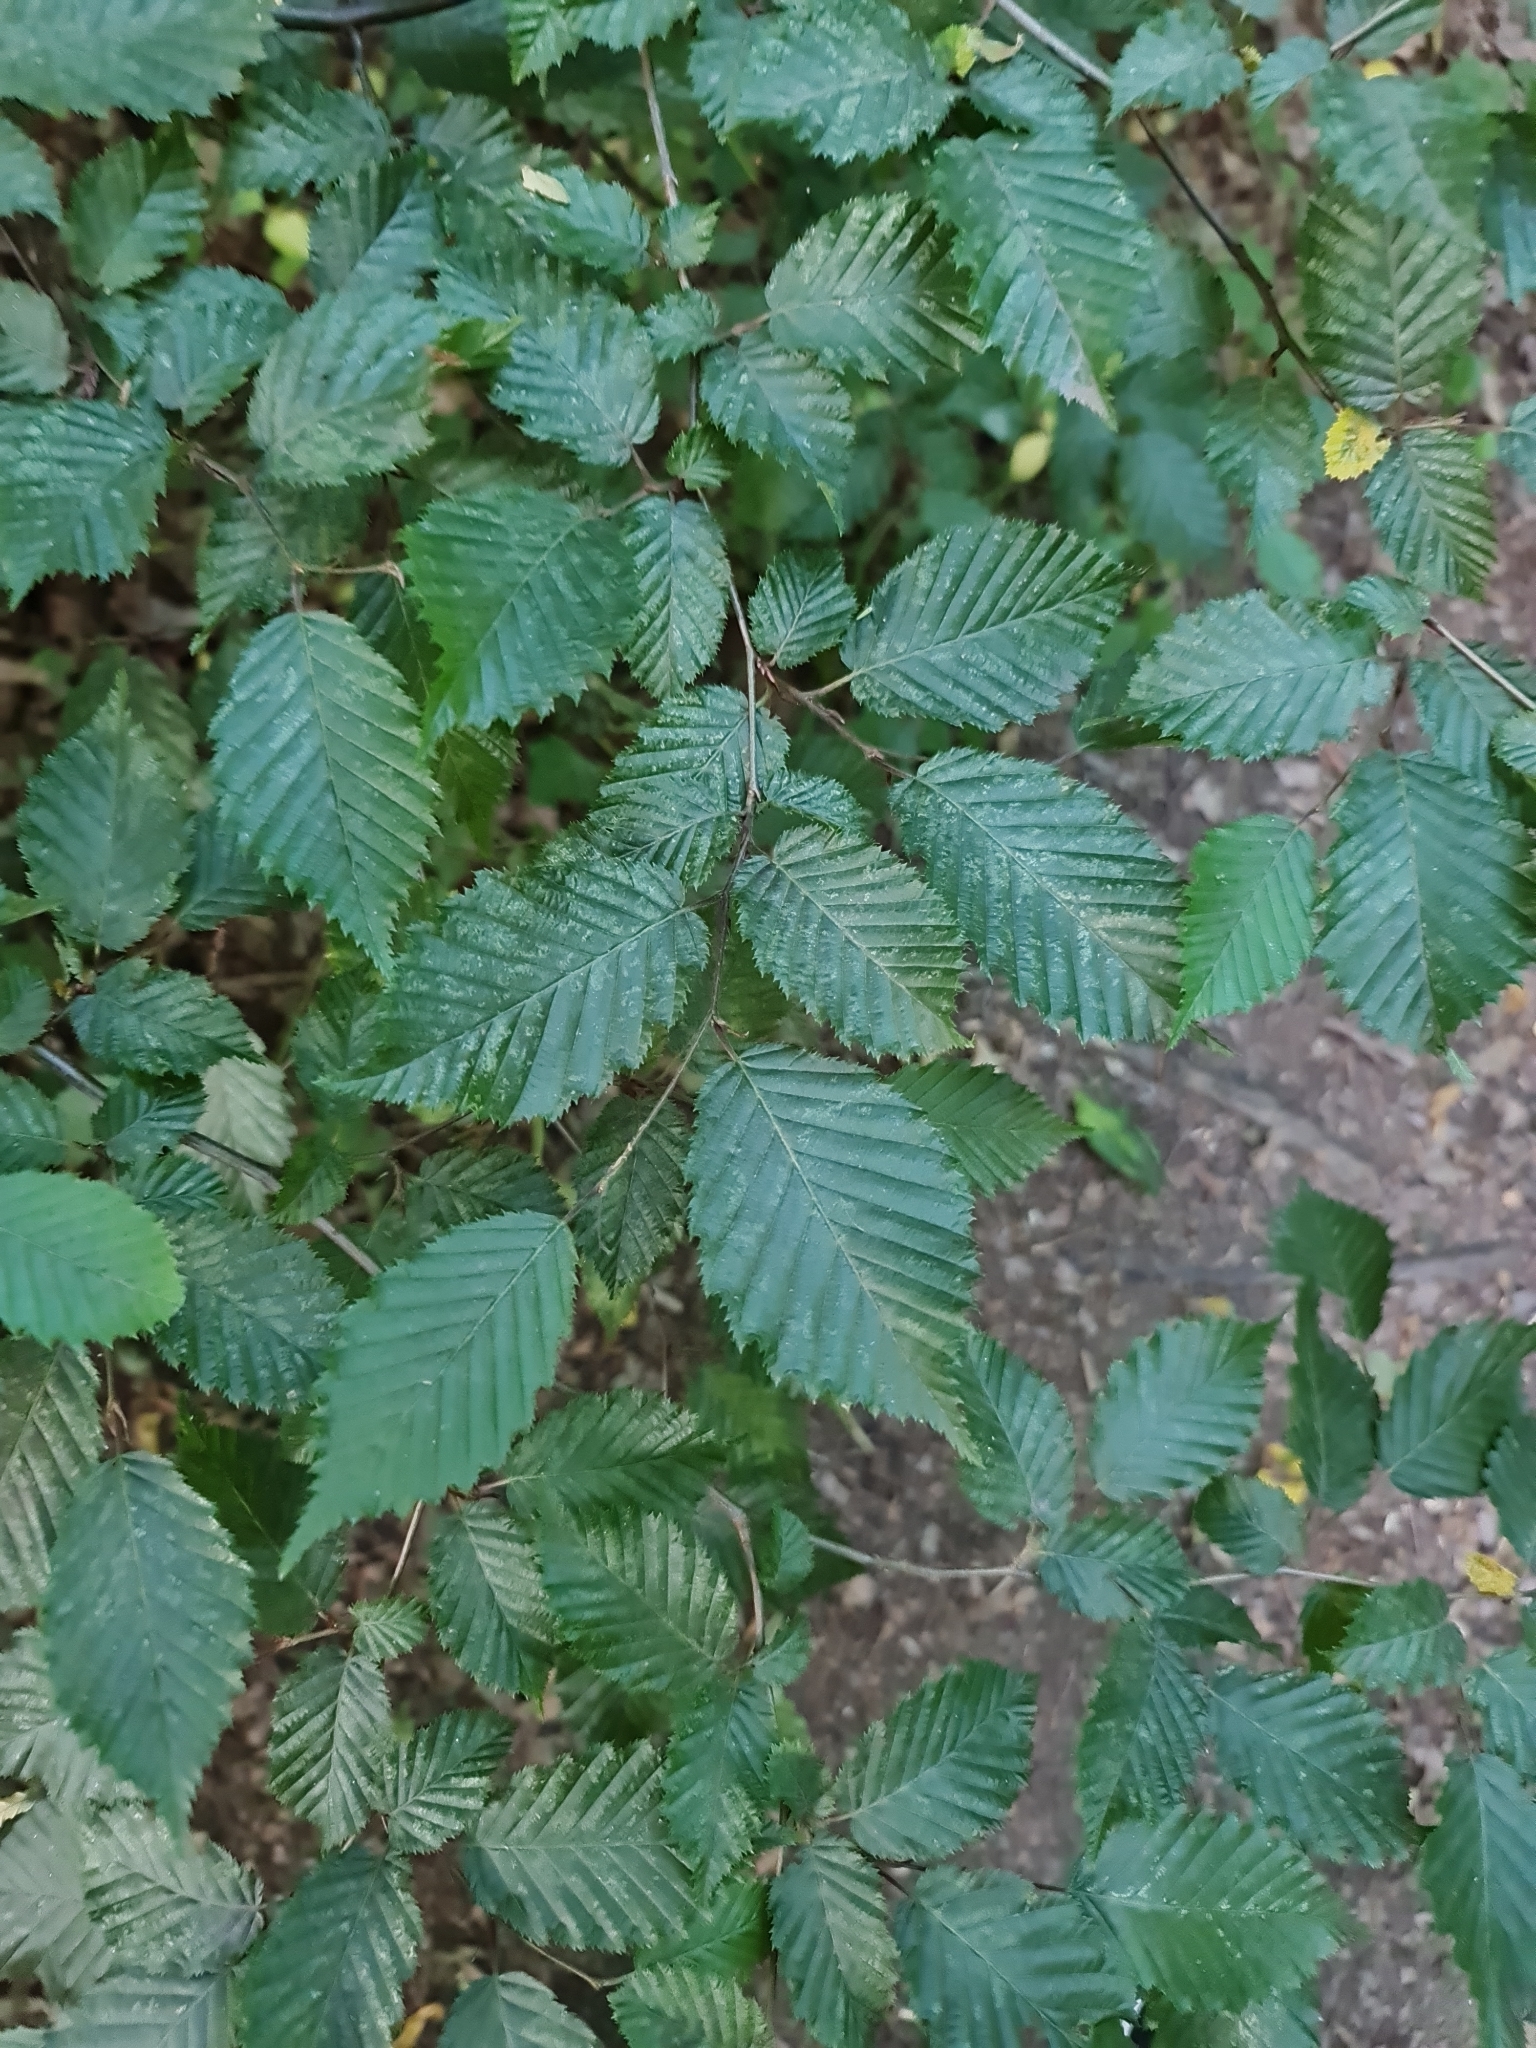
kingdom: Plantae
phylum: Tracheophyta
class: Magnoliopsida
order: Fagales
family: Betulaceae
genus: Carpinus
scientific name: Carpinus betulus
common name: Hornbeam
